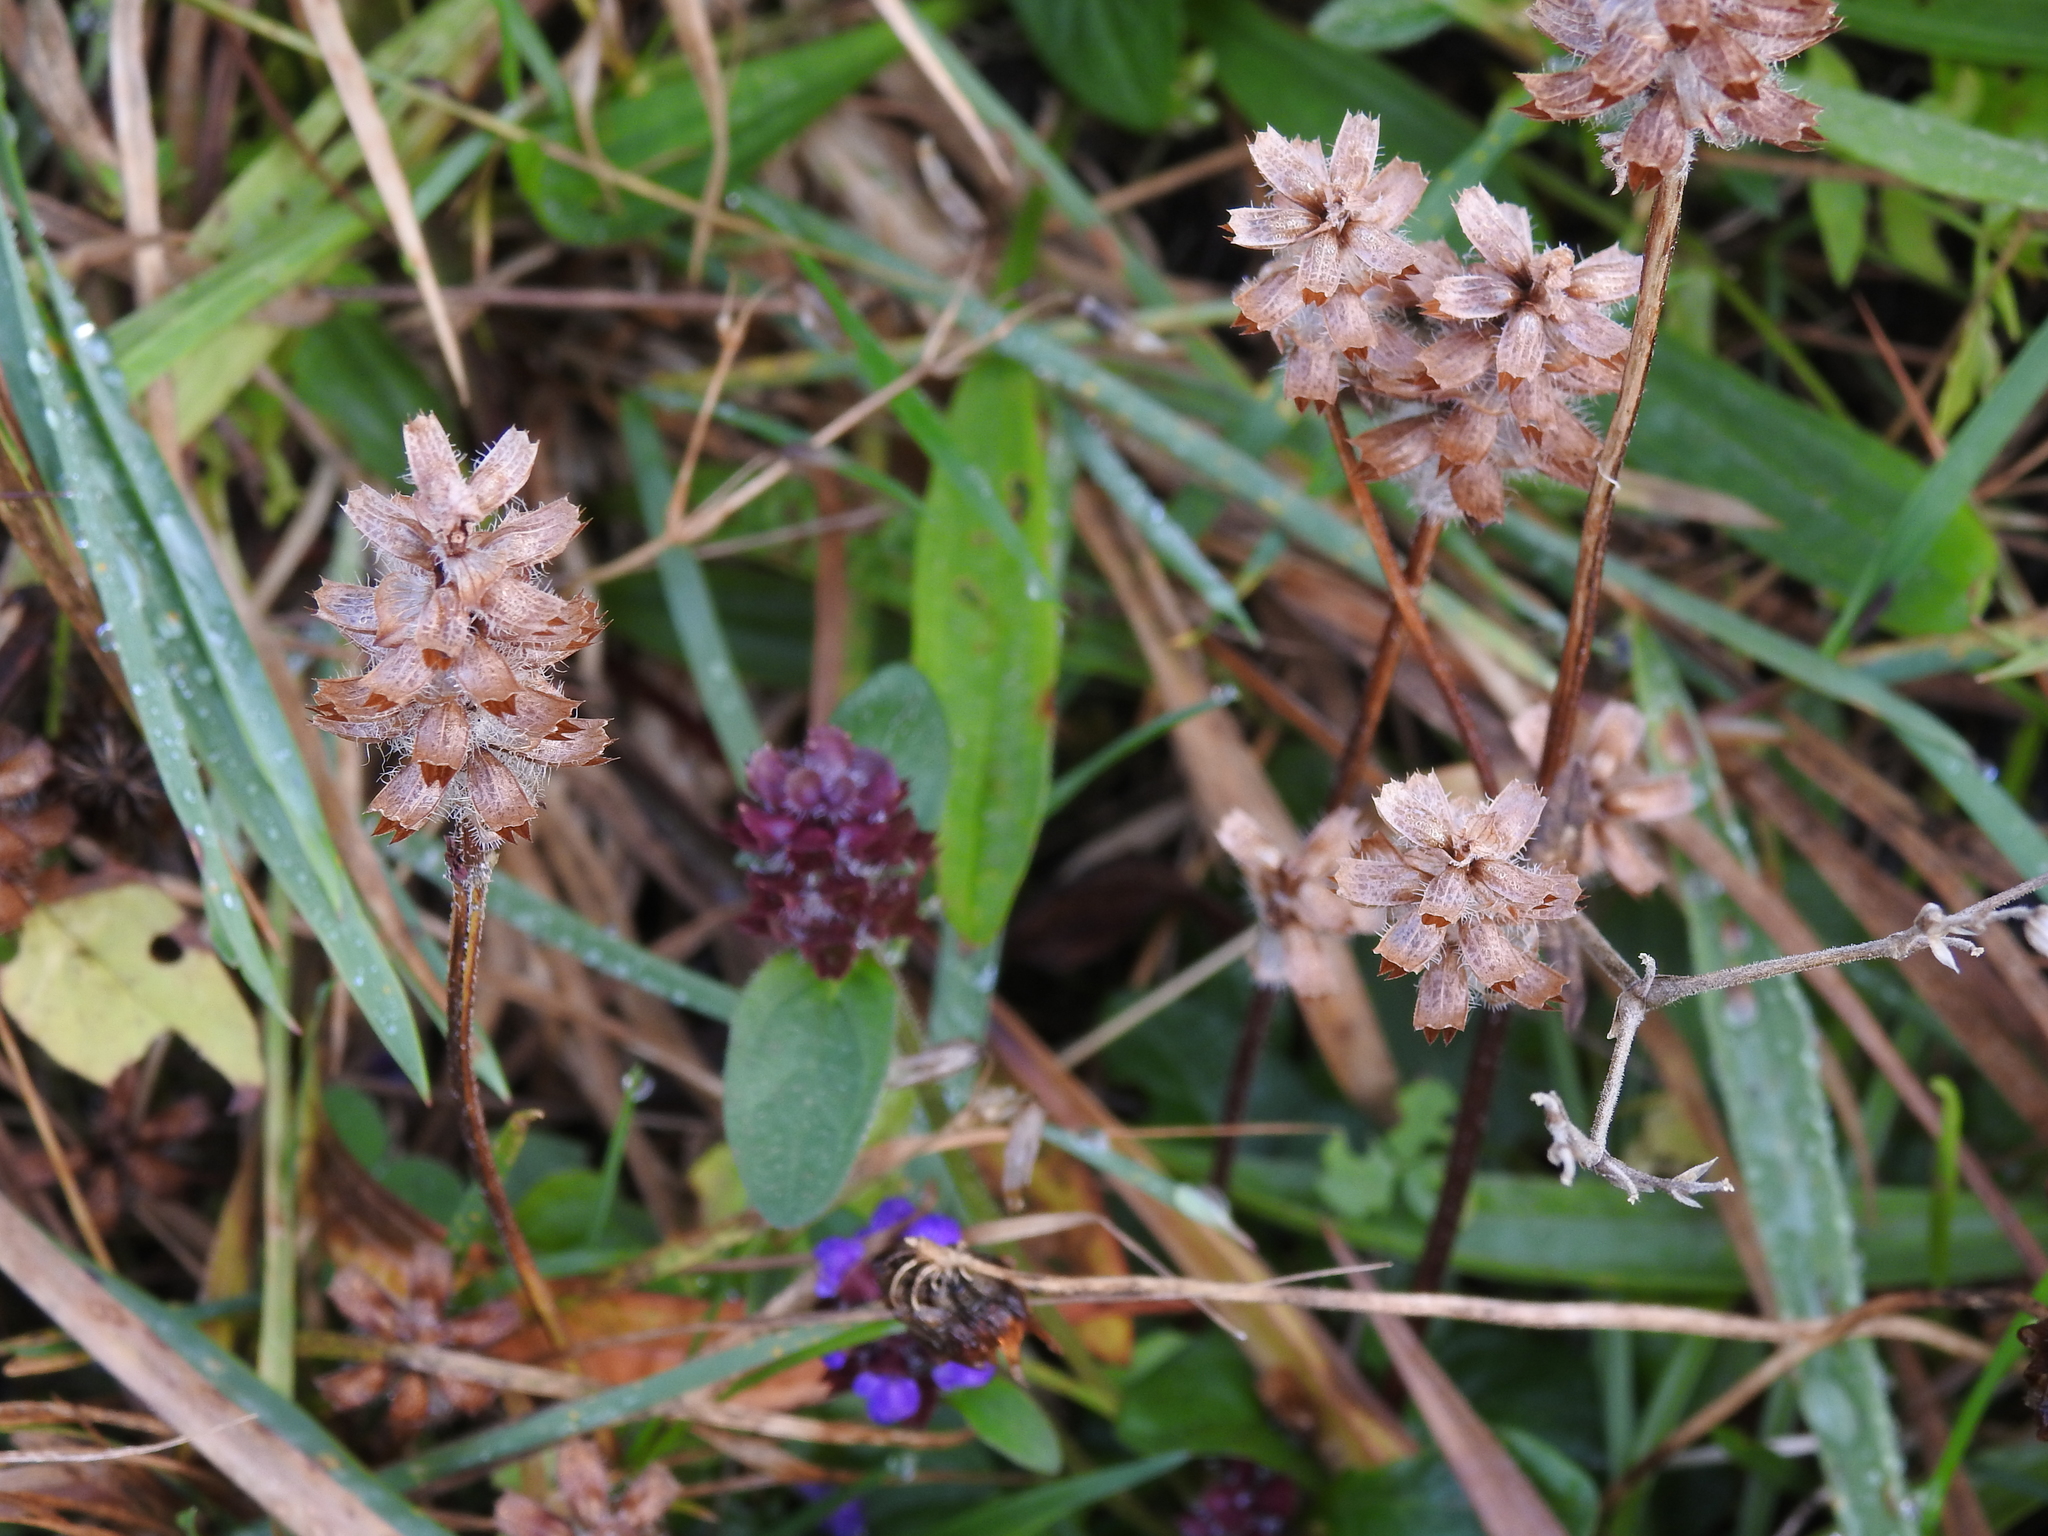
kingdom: Plantae
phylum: Tracheophyta
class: Magnoliopsida
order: Lamiales
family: Lamiaceae
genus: Prunella
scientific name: Prunella vulgaris
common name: Heal-all
